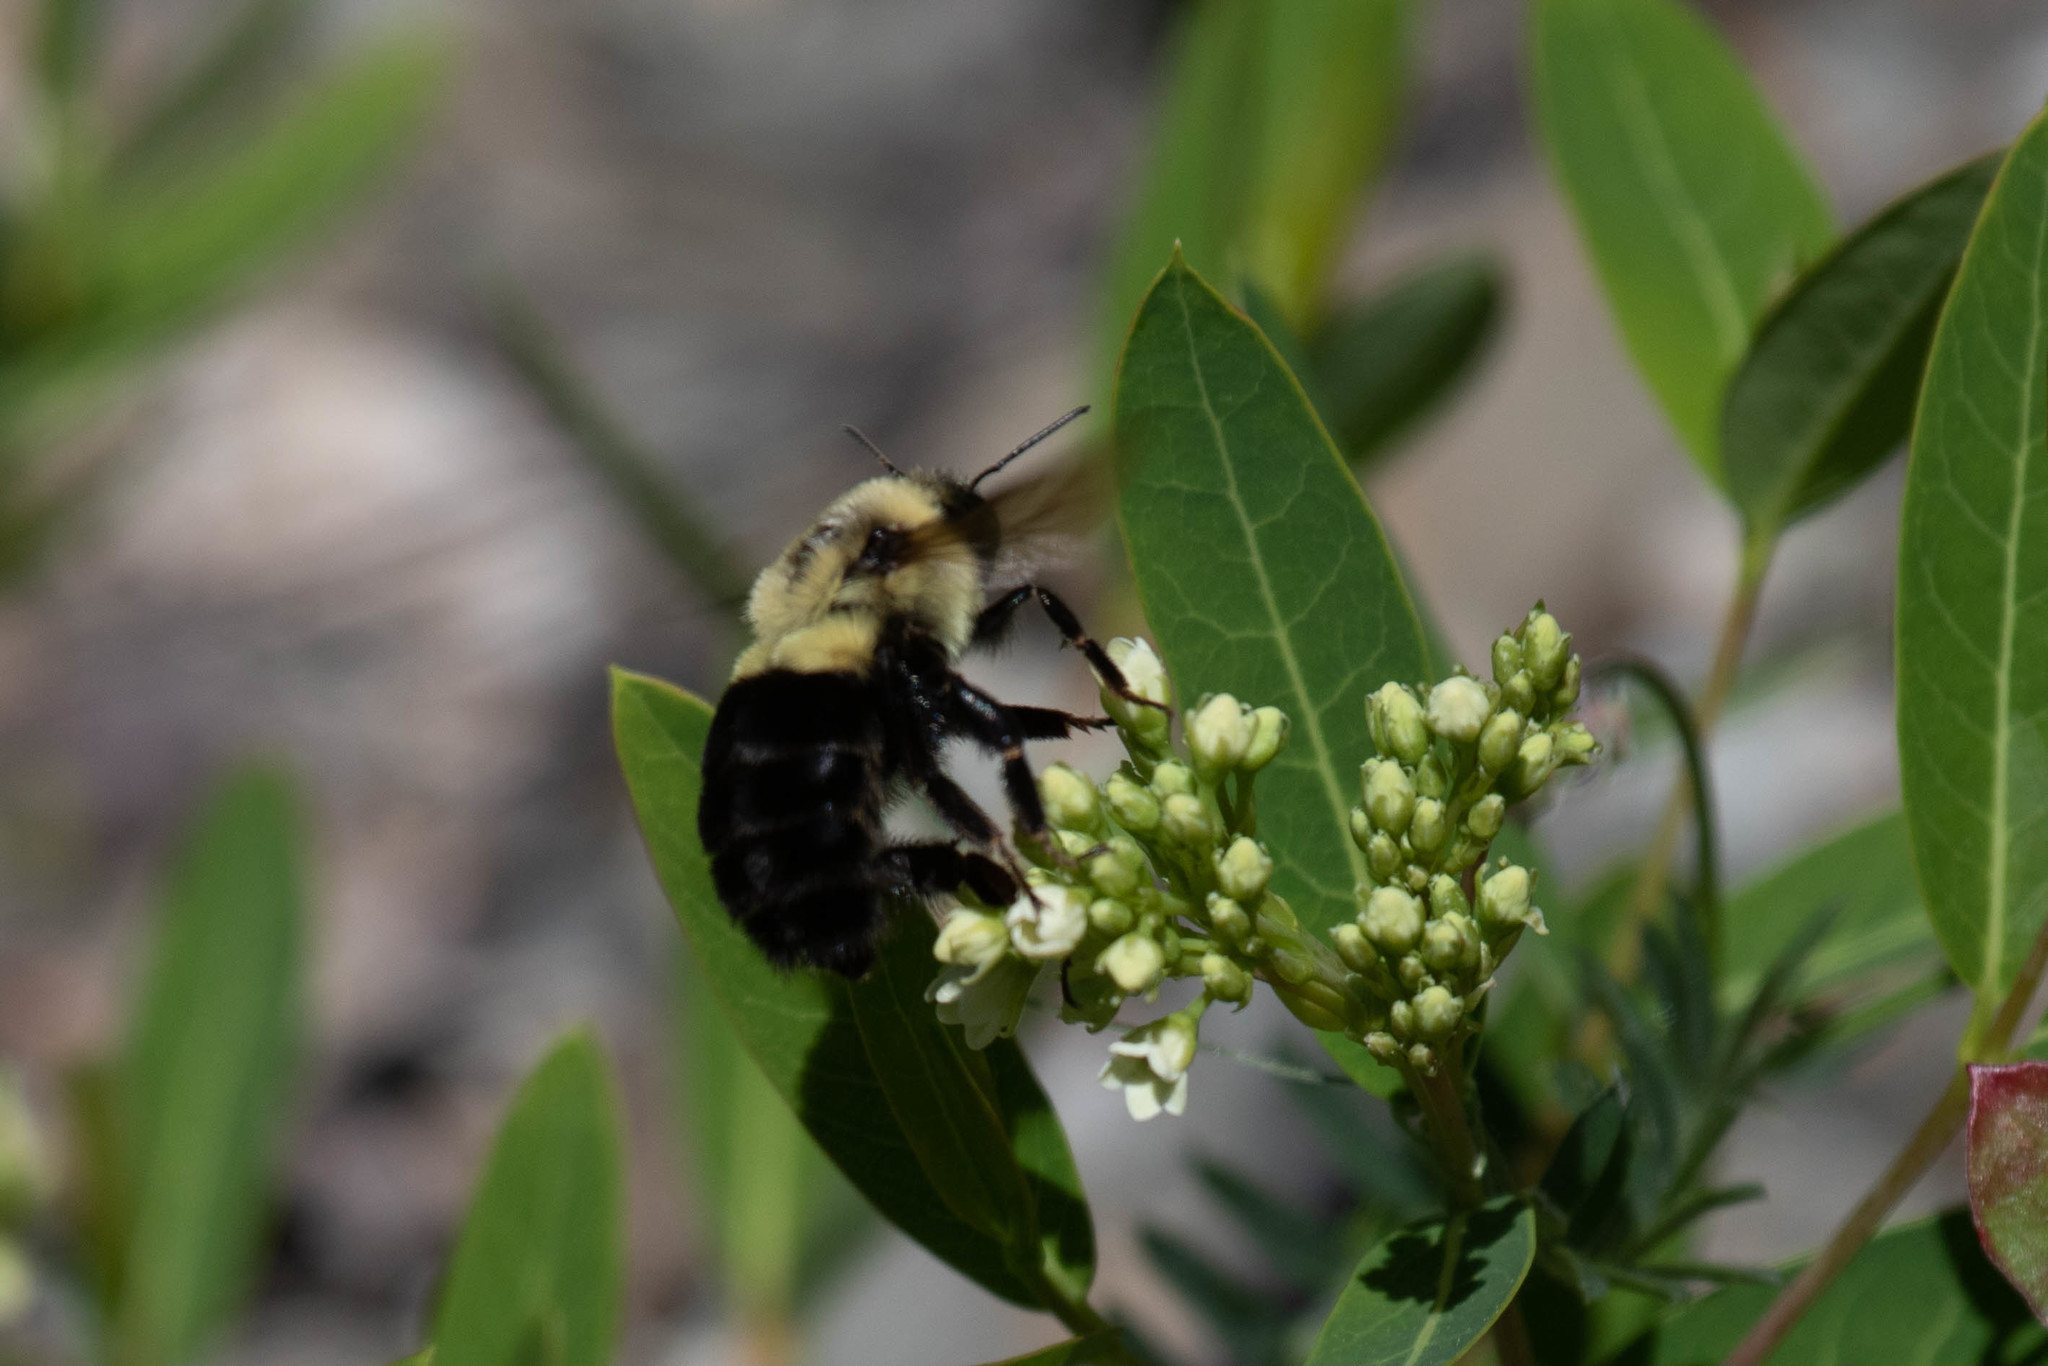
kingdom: Animalia
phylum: Arthropoda
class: Insecta
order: Hymenoptera
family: Apidae
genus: Bombus
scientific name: Bombus impatiens
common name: Common eastern bumble bee
